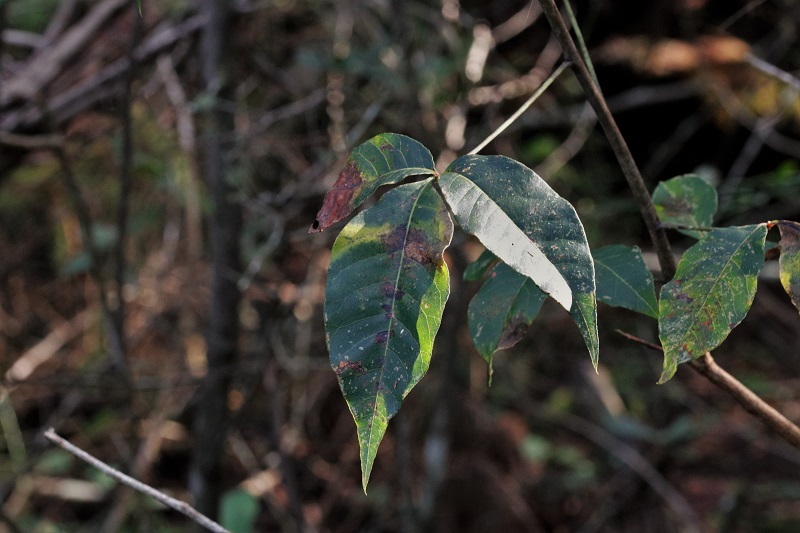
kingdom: Plantae
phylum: Tracheophyta
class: Magnoliopsida
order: Sapindales
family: Anacardiaceae
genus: Searsia
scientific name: Searsia chirindensis
